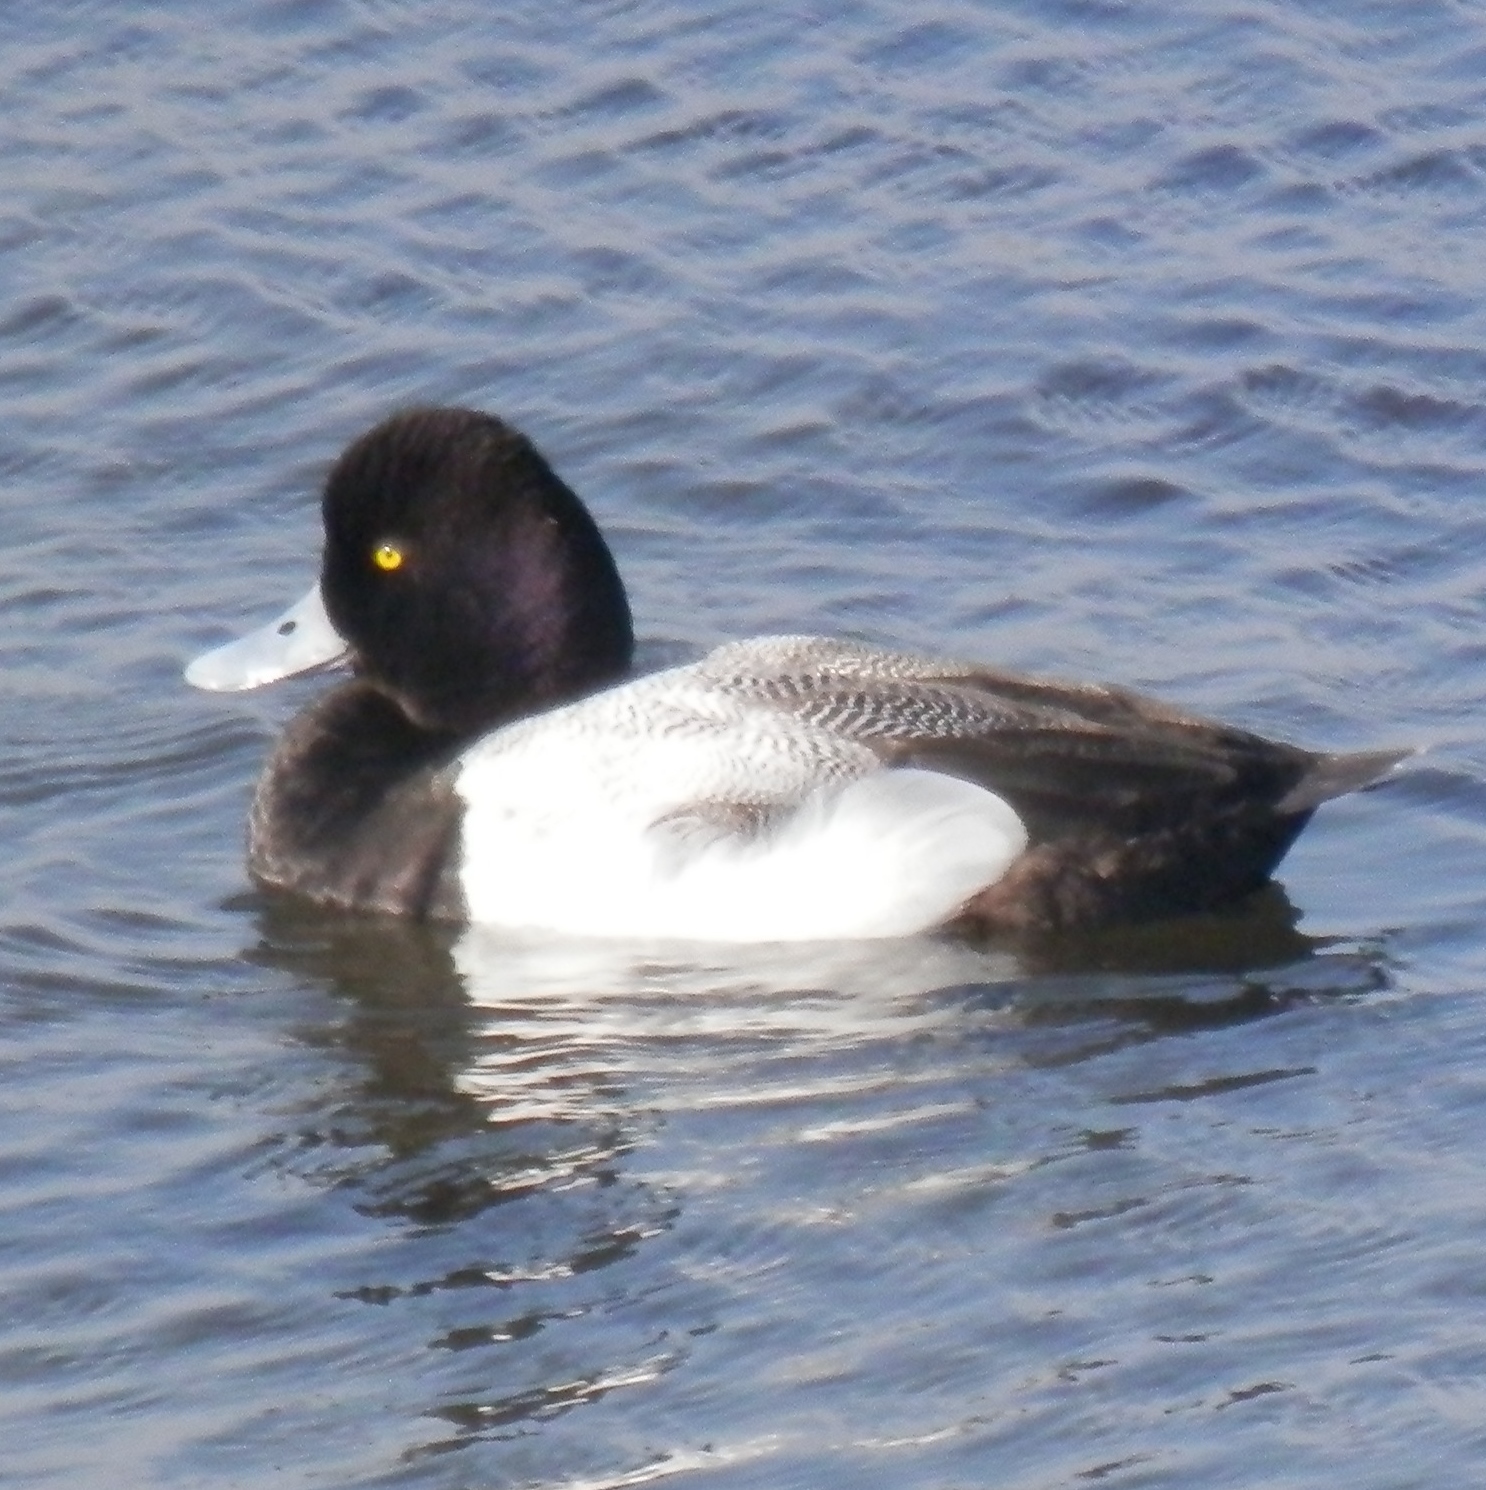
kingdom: Animalia
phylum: Chordata
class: Aves
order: Anseriformes
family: Anatidae
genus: Aythya
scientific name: Aythya affinis
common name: Lesser scaup
